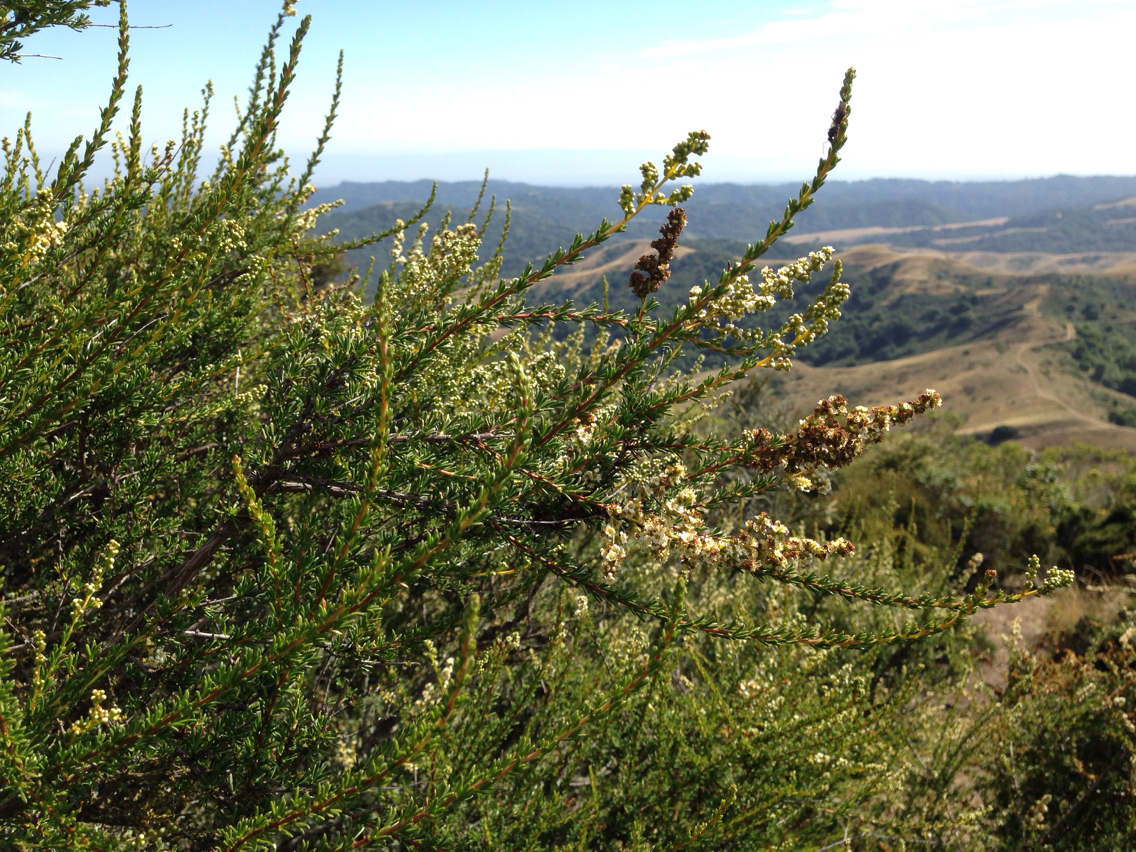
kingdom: Plantae
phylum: Tracheophyta
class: Magnoliopsida
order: Rosales
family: Rosaceae
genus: Adenostoma
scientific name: Adenostoma fasciculatum
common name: Chamise
